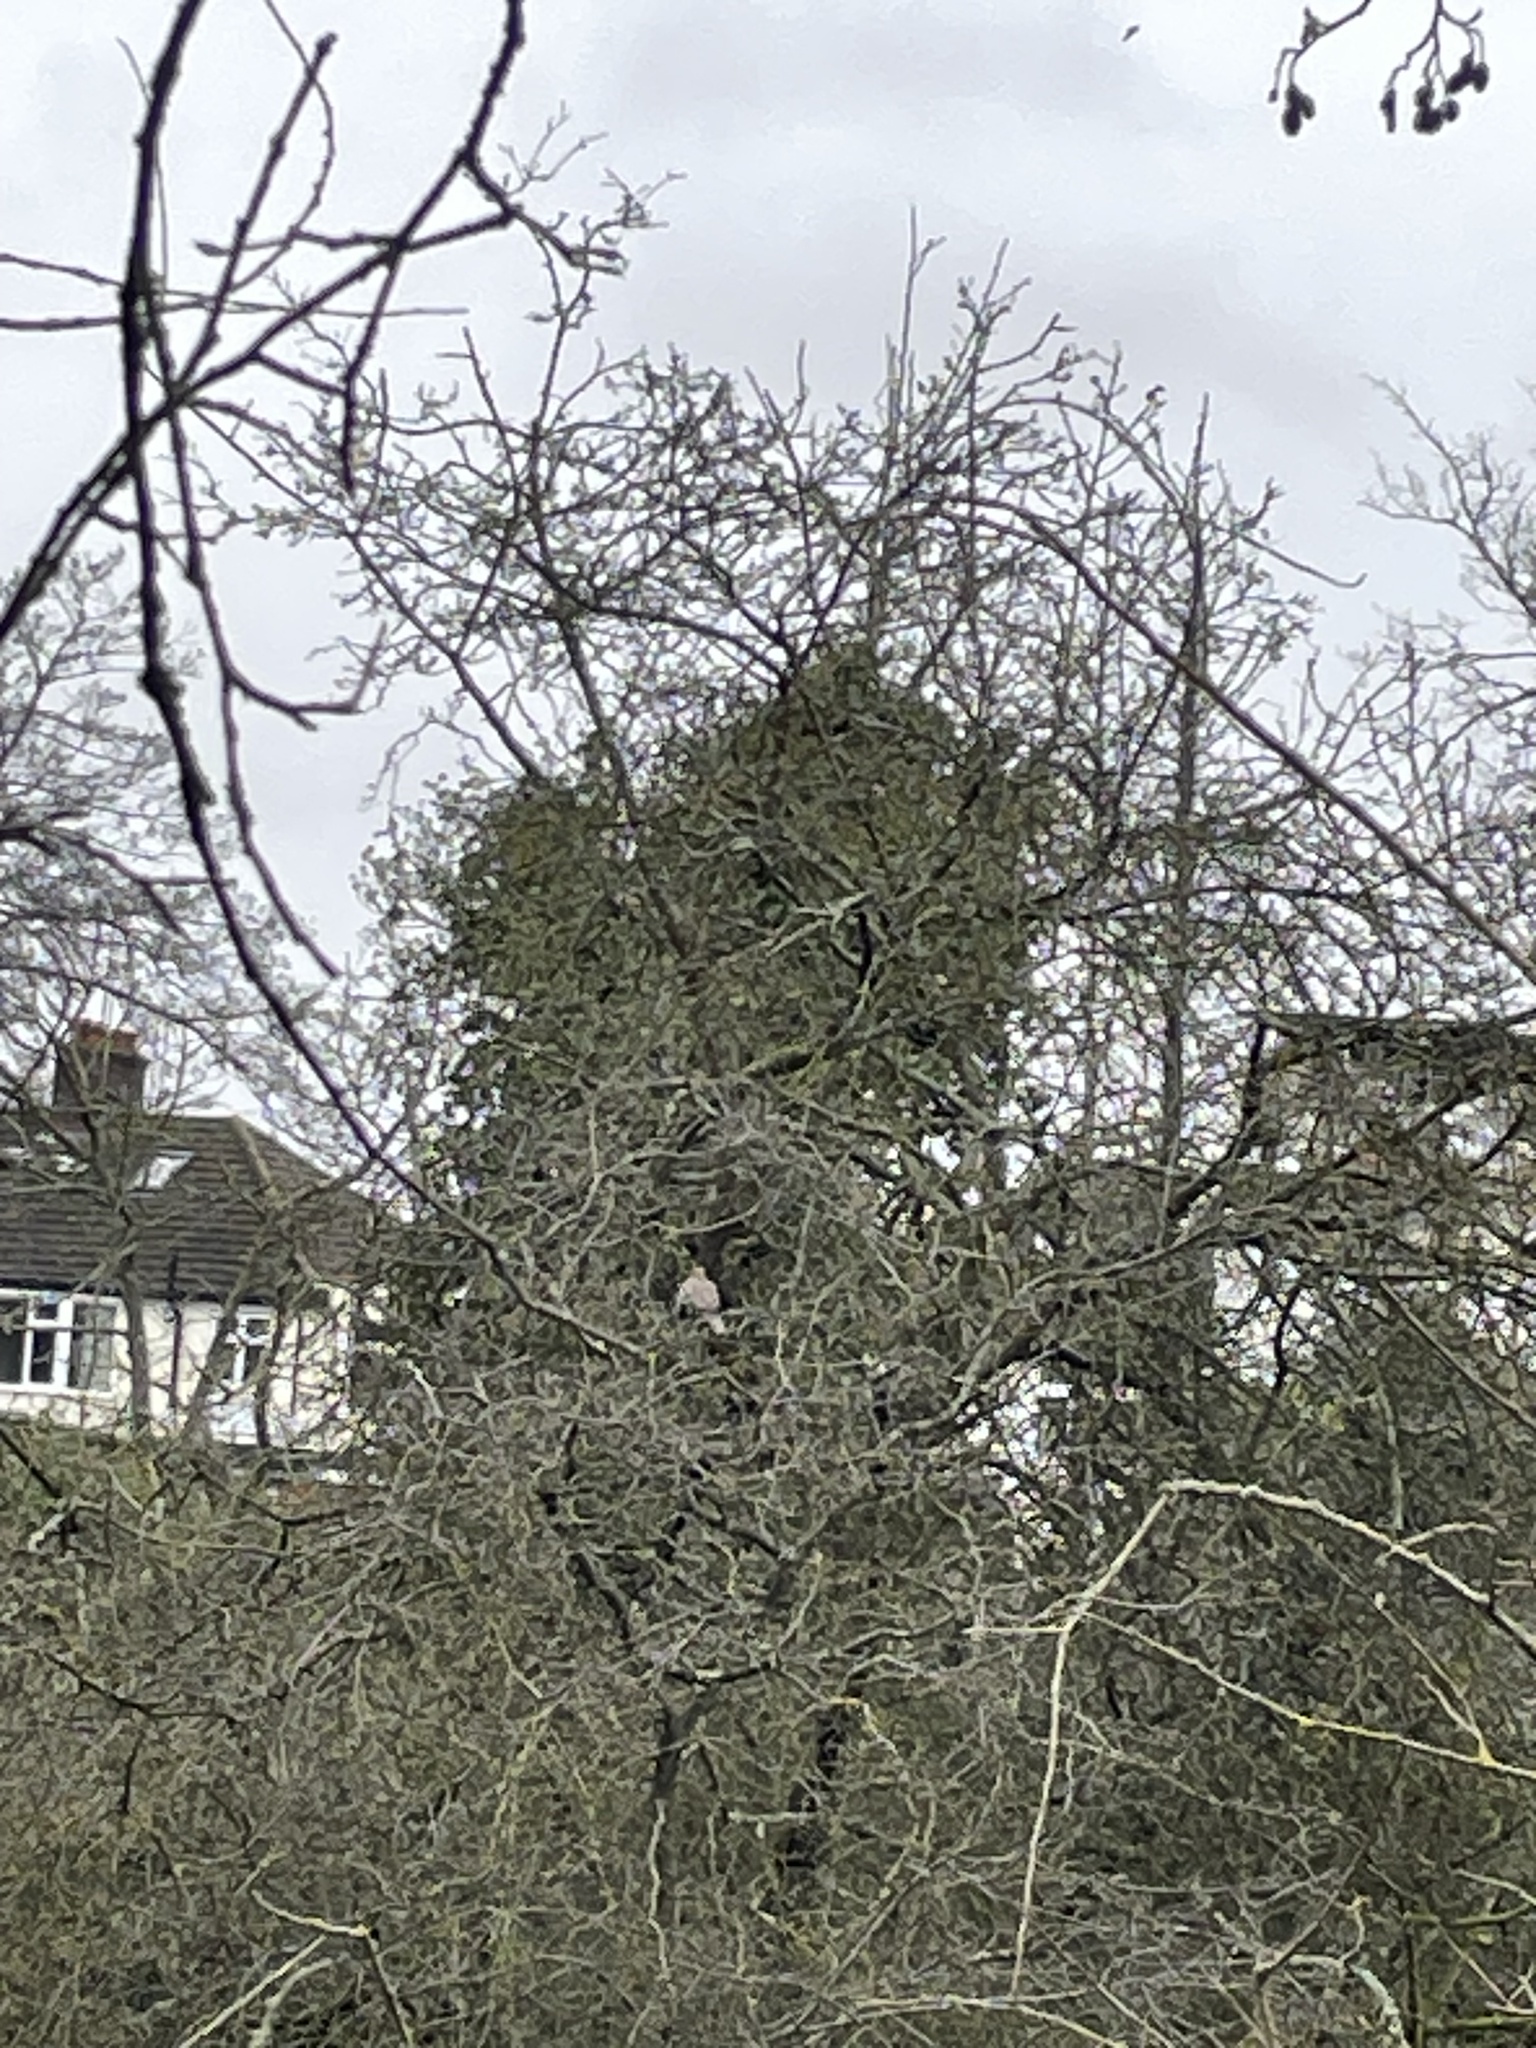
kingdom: Animalia
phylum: Chordata
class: Aves
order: Columbiformes
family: Columbidae
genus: Streptopelia
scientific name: Streptopelia decaocto
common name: Eurasian collared dove
